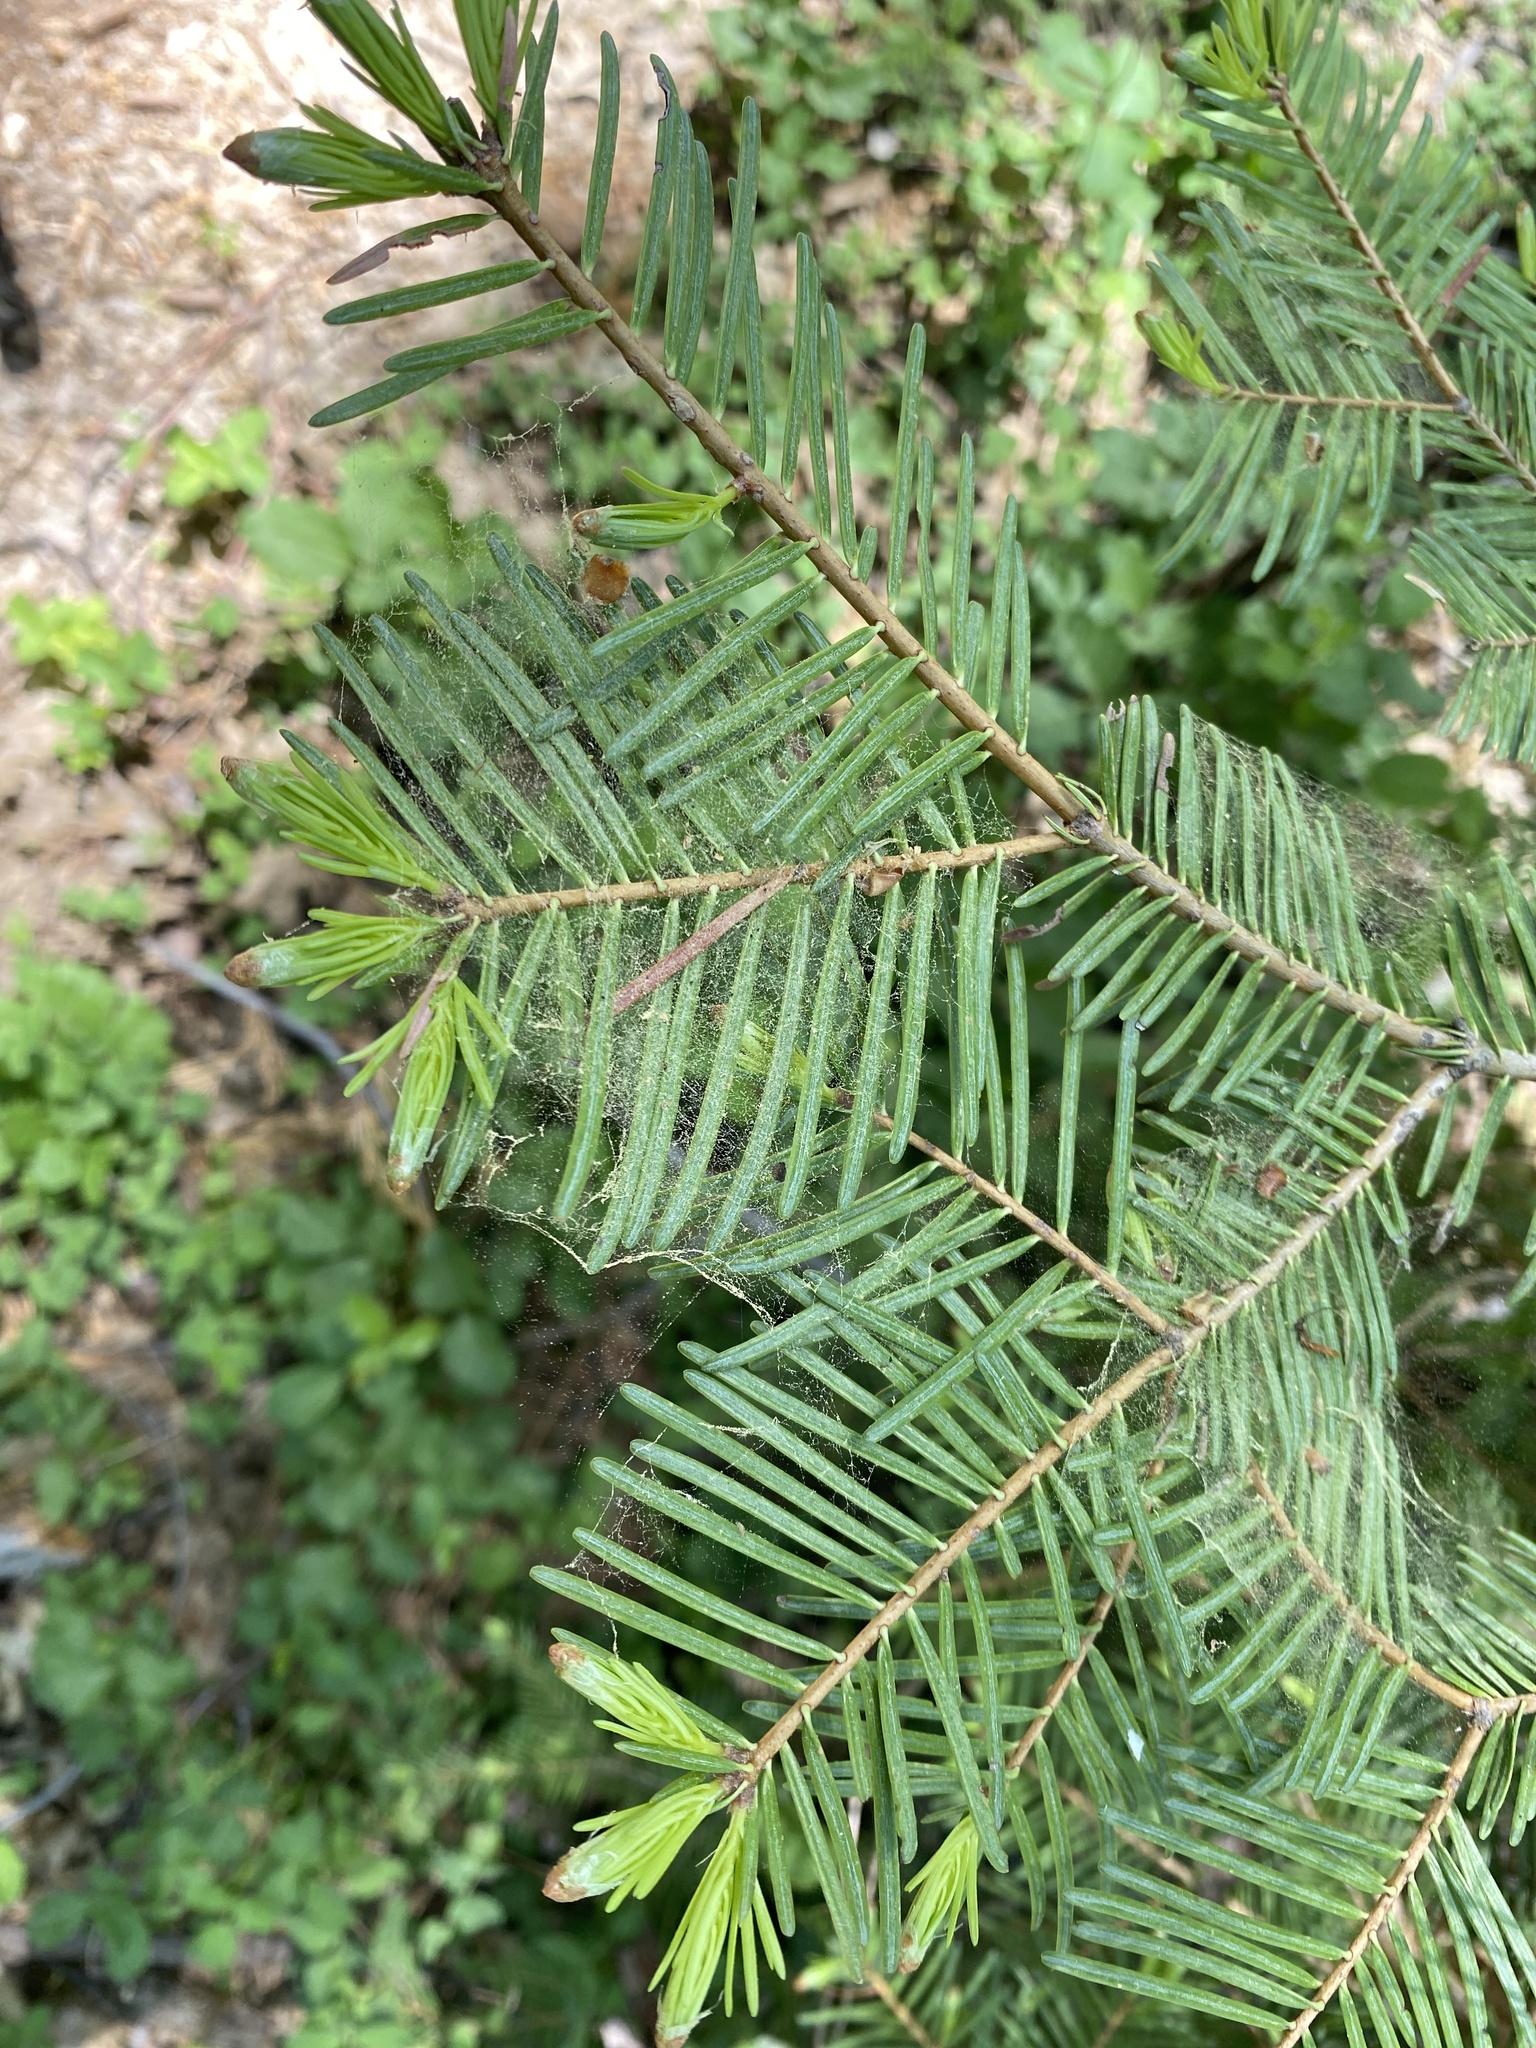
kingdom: Plantae
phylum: Tracheophyta
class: Pinopsida
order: Pinales
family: Pinaceae
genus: Abies
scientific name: Abies concolor
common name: Colorado fir
